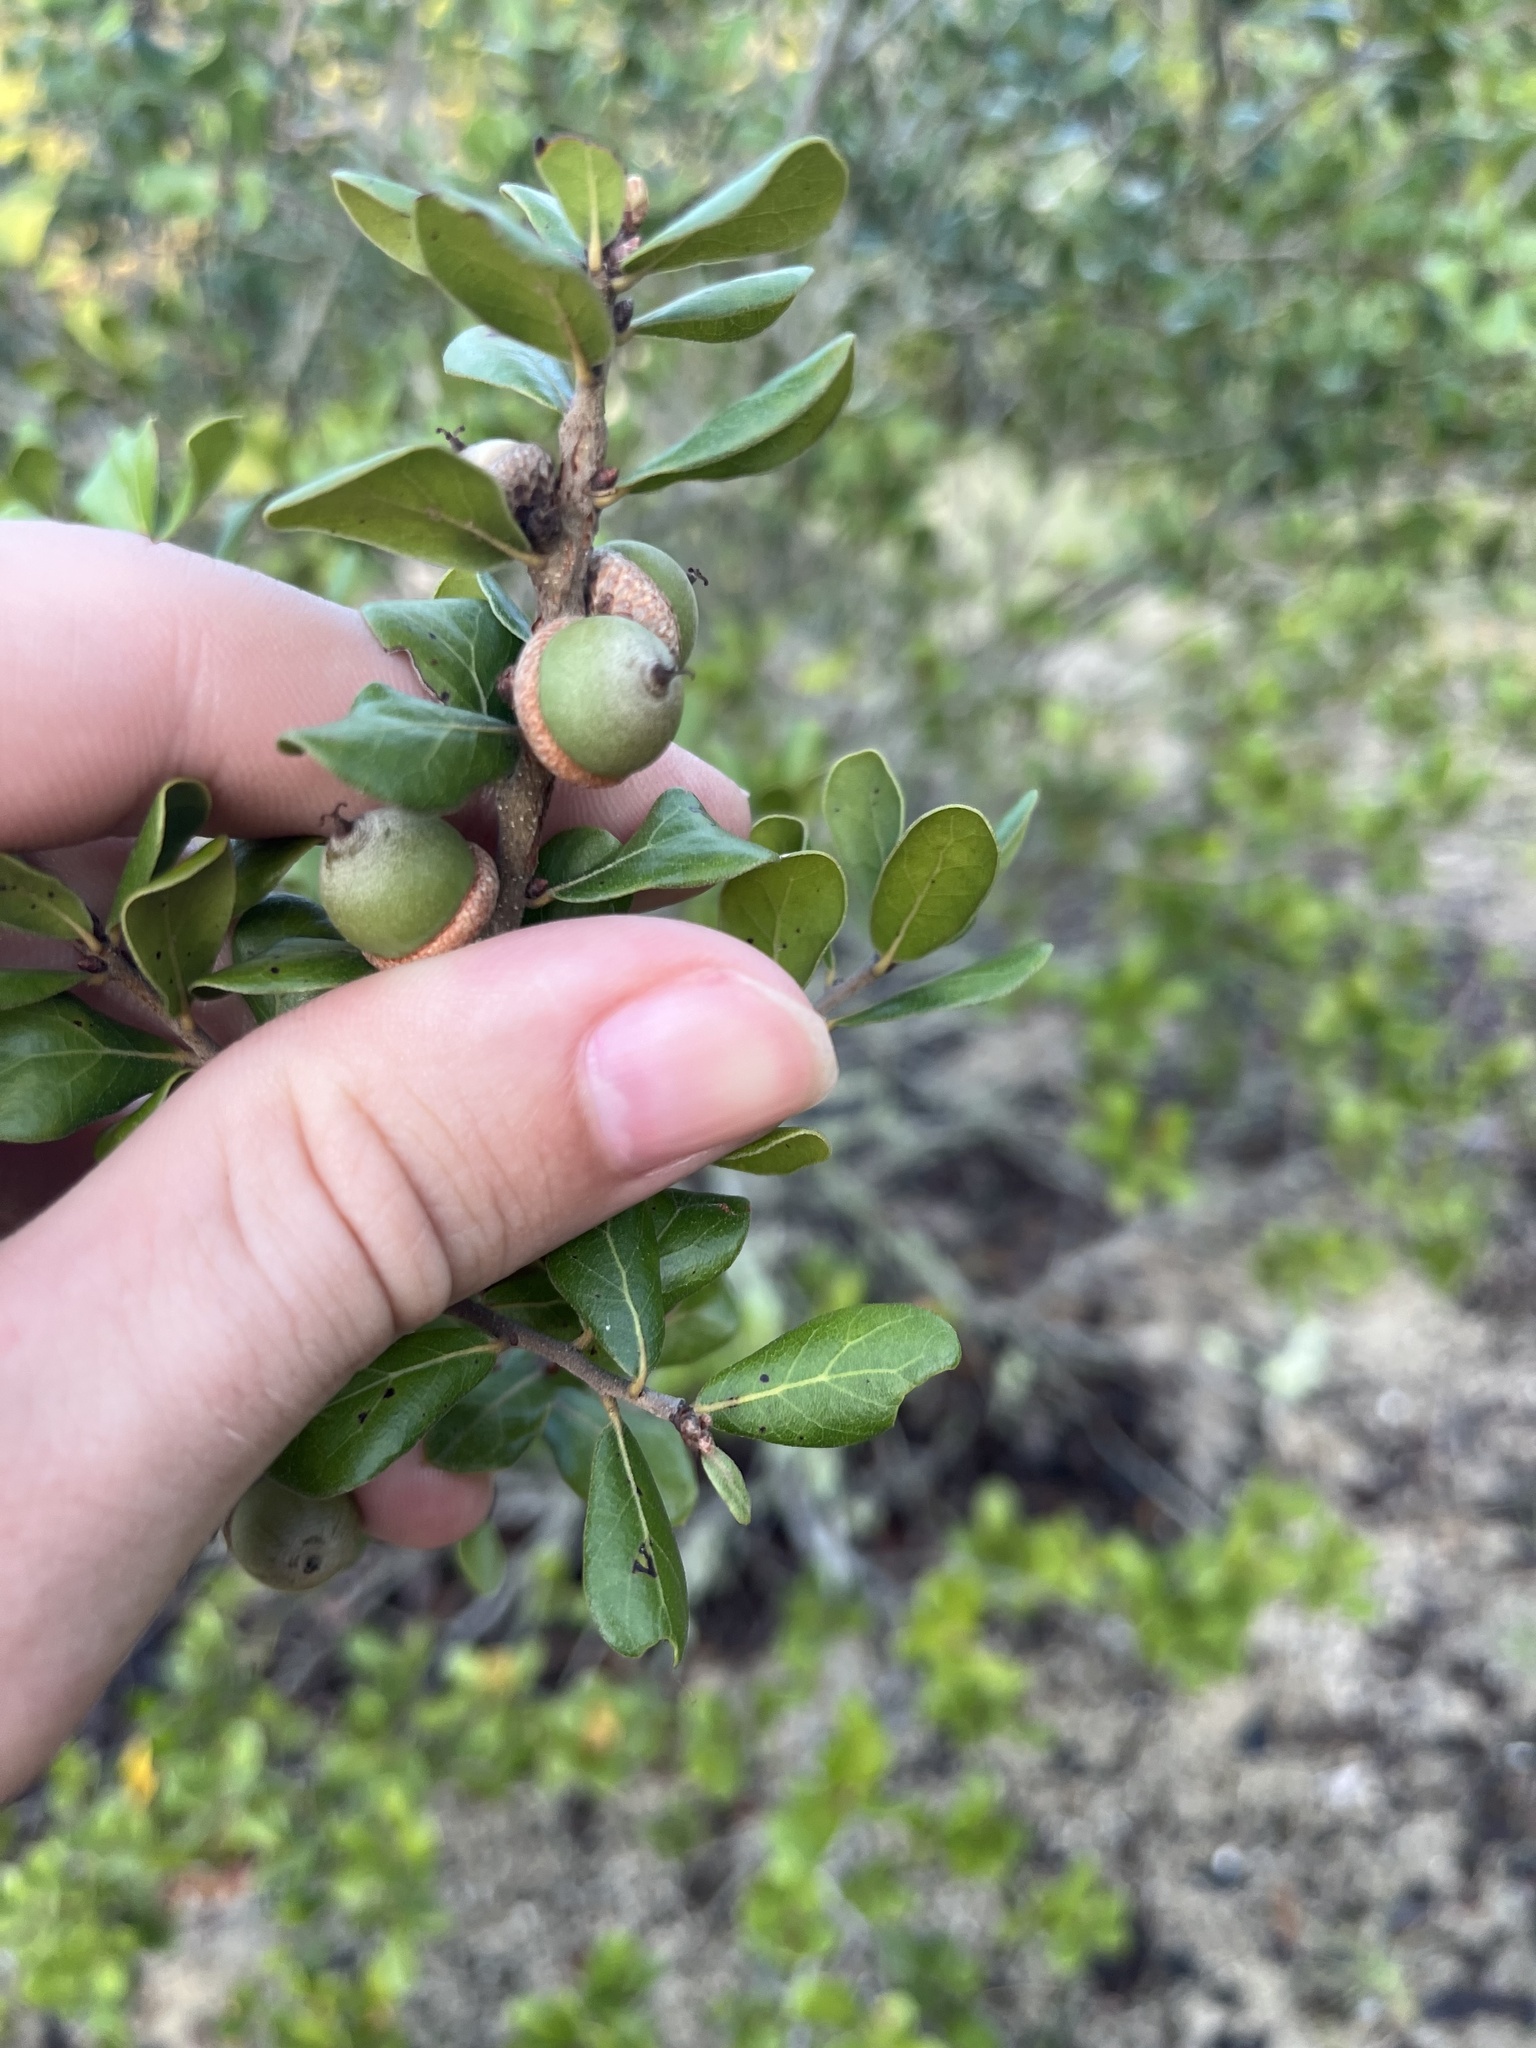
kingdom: Plantae
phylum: Tracheophyta
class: Magnoliopsida
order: Fagales
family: Fagaceae
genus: Quercus
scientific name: Quercus myrtifolia
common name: Myrtle oak
